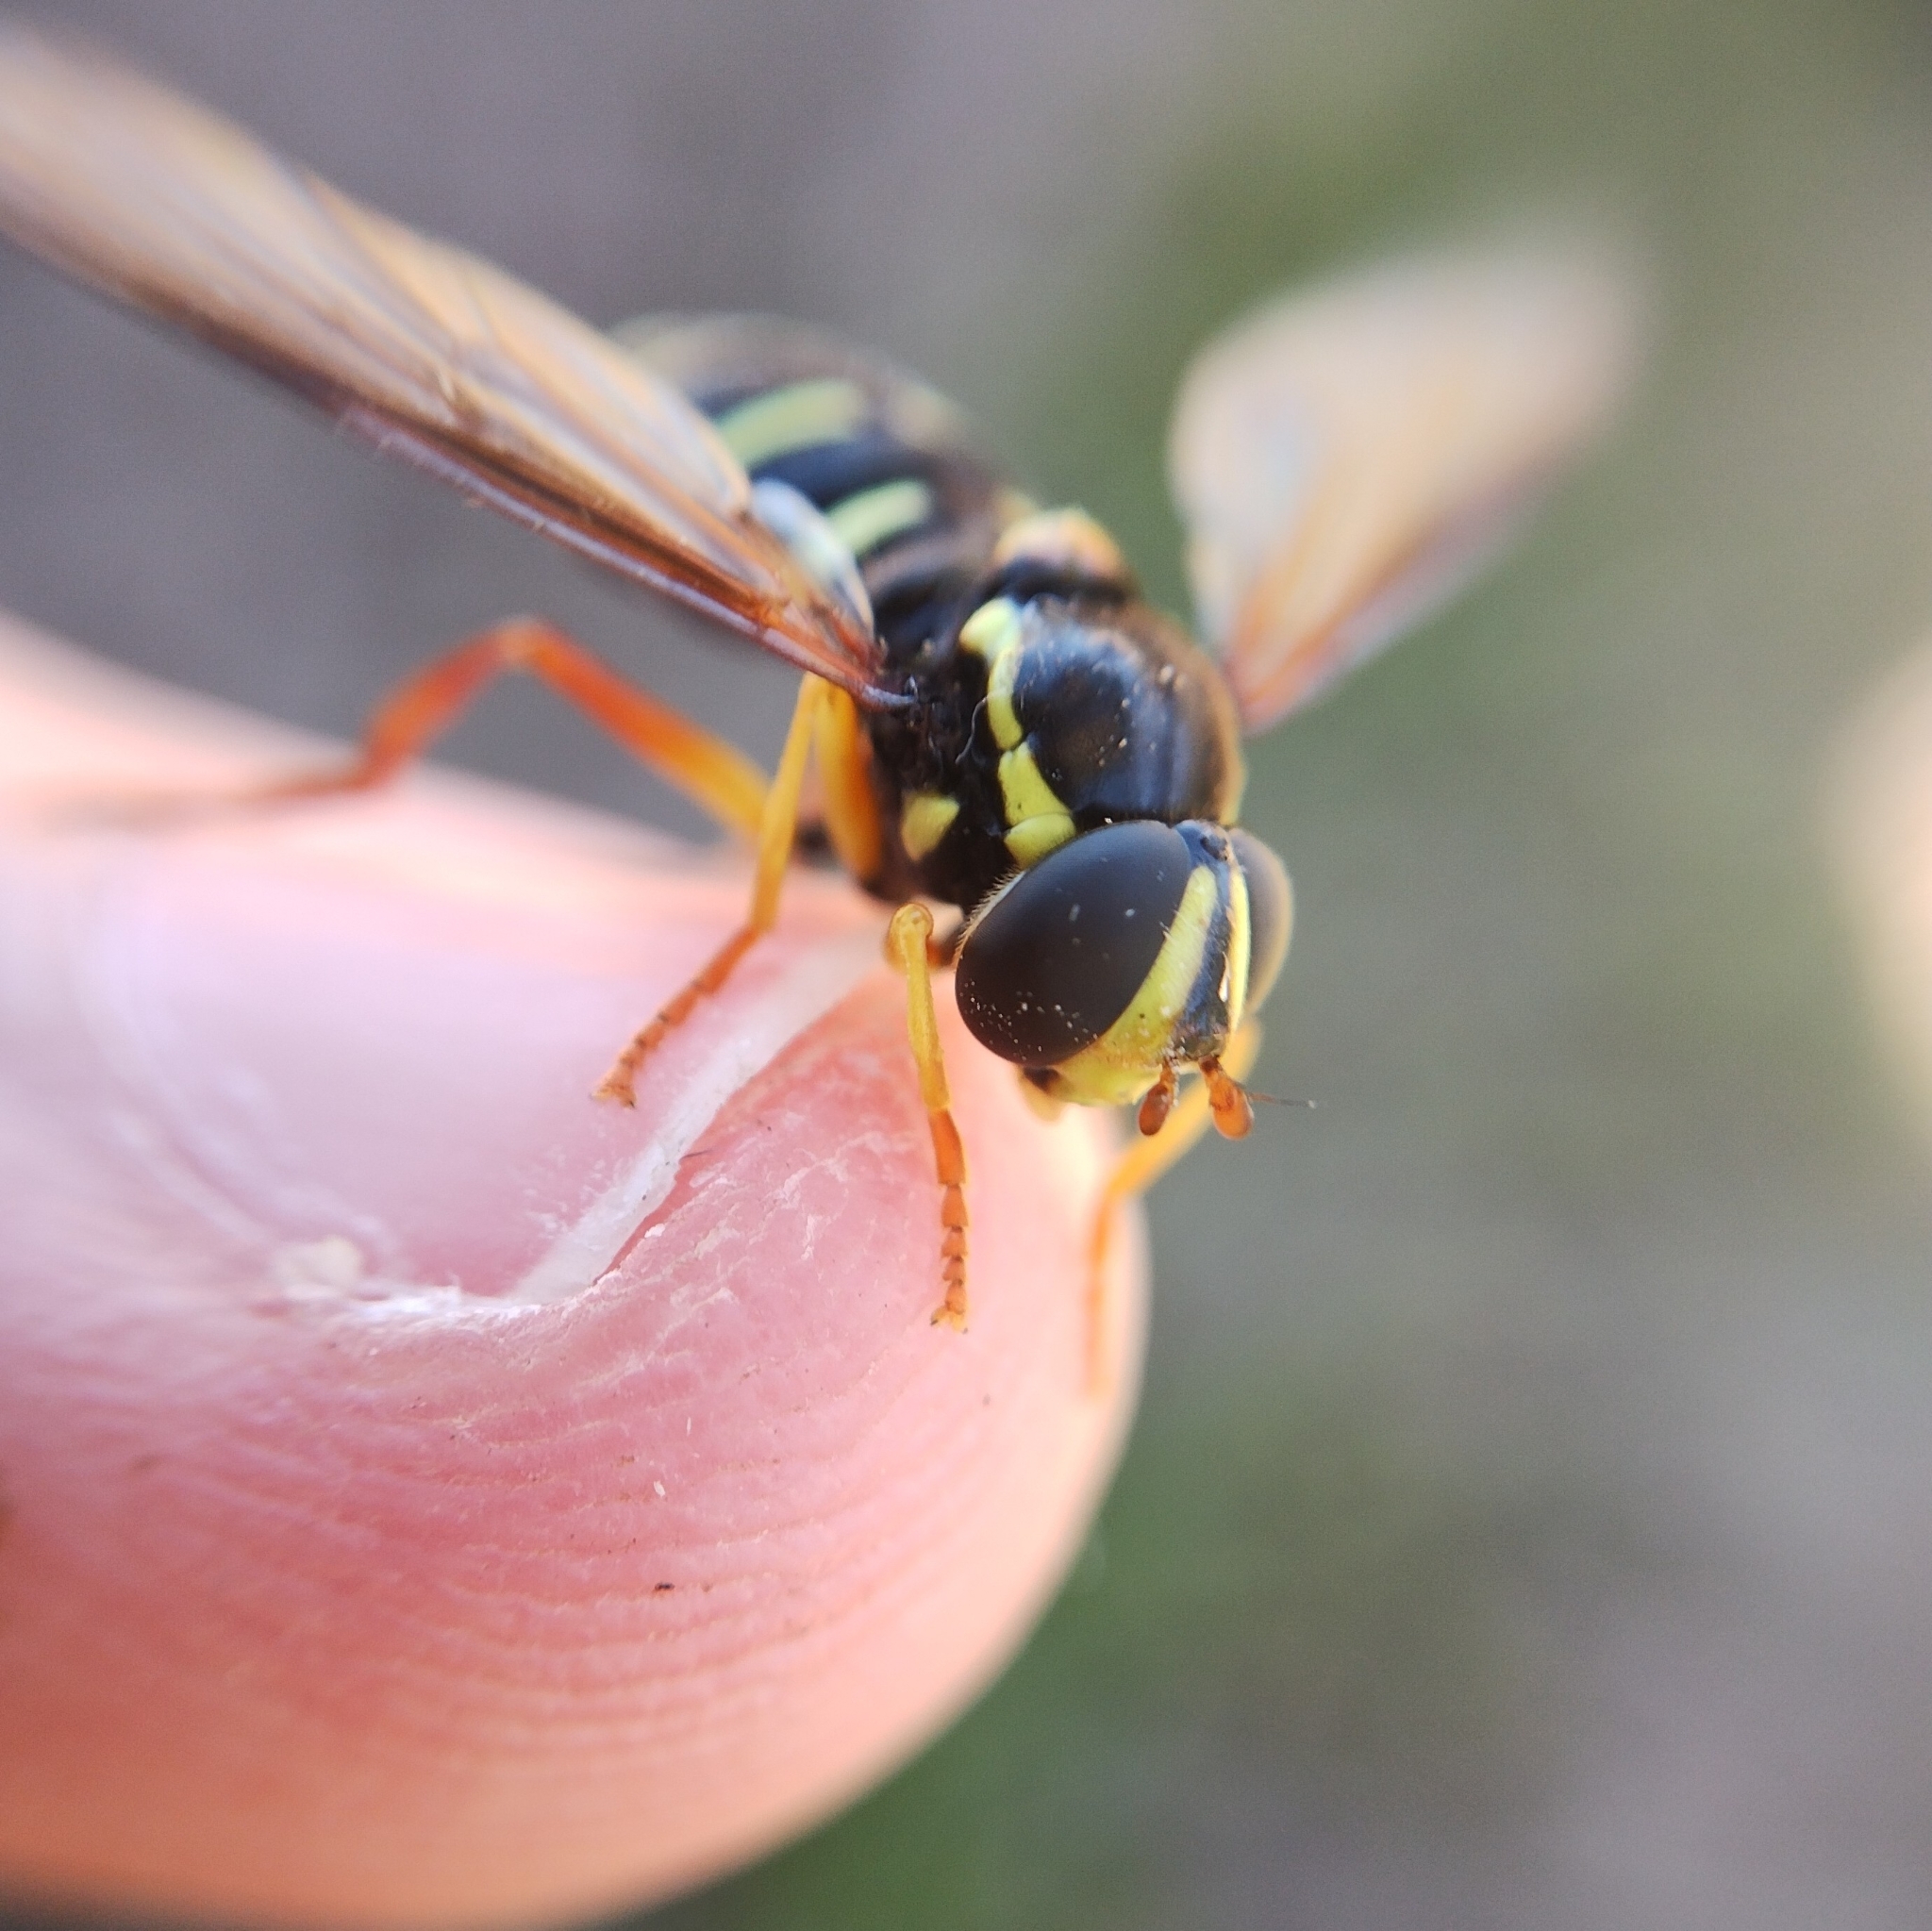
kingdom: Animalia
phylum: Arthropoda
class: Insecta
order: Diptera
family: Syrphidae
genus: Philhelius
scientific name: Philhelius citrofasciata
